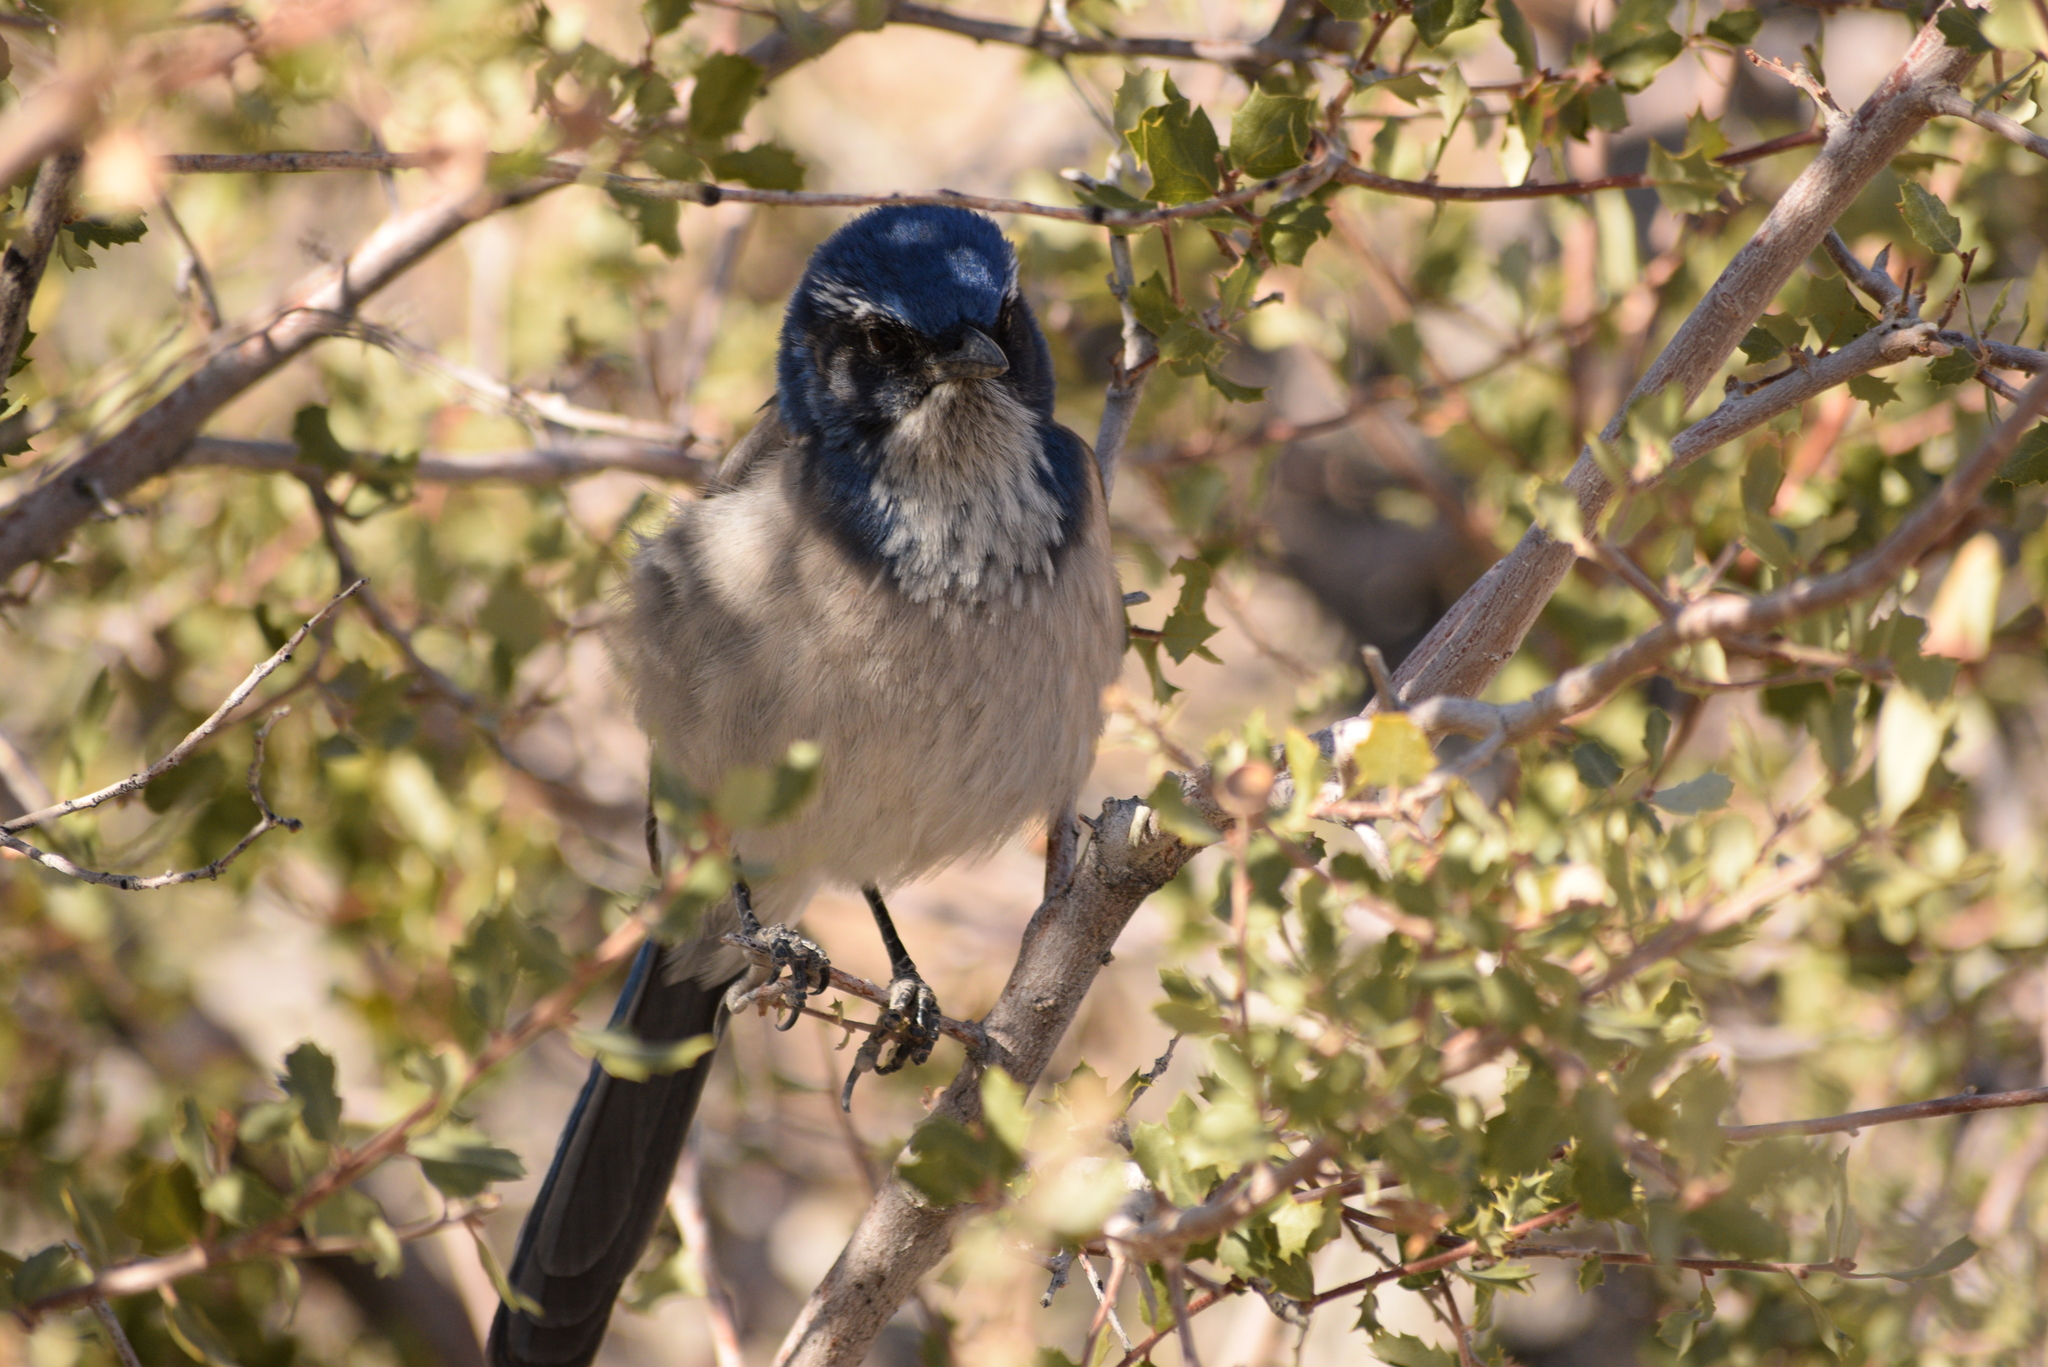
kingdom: Animalia
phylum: Chordata
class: Aves
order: Passeriformes
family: Corvidae
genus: Aphelocoma
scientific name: Aphelocoma californica
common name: California scrub-jay
